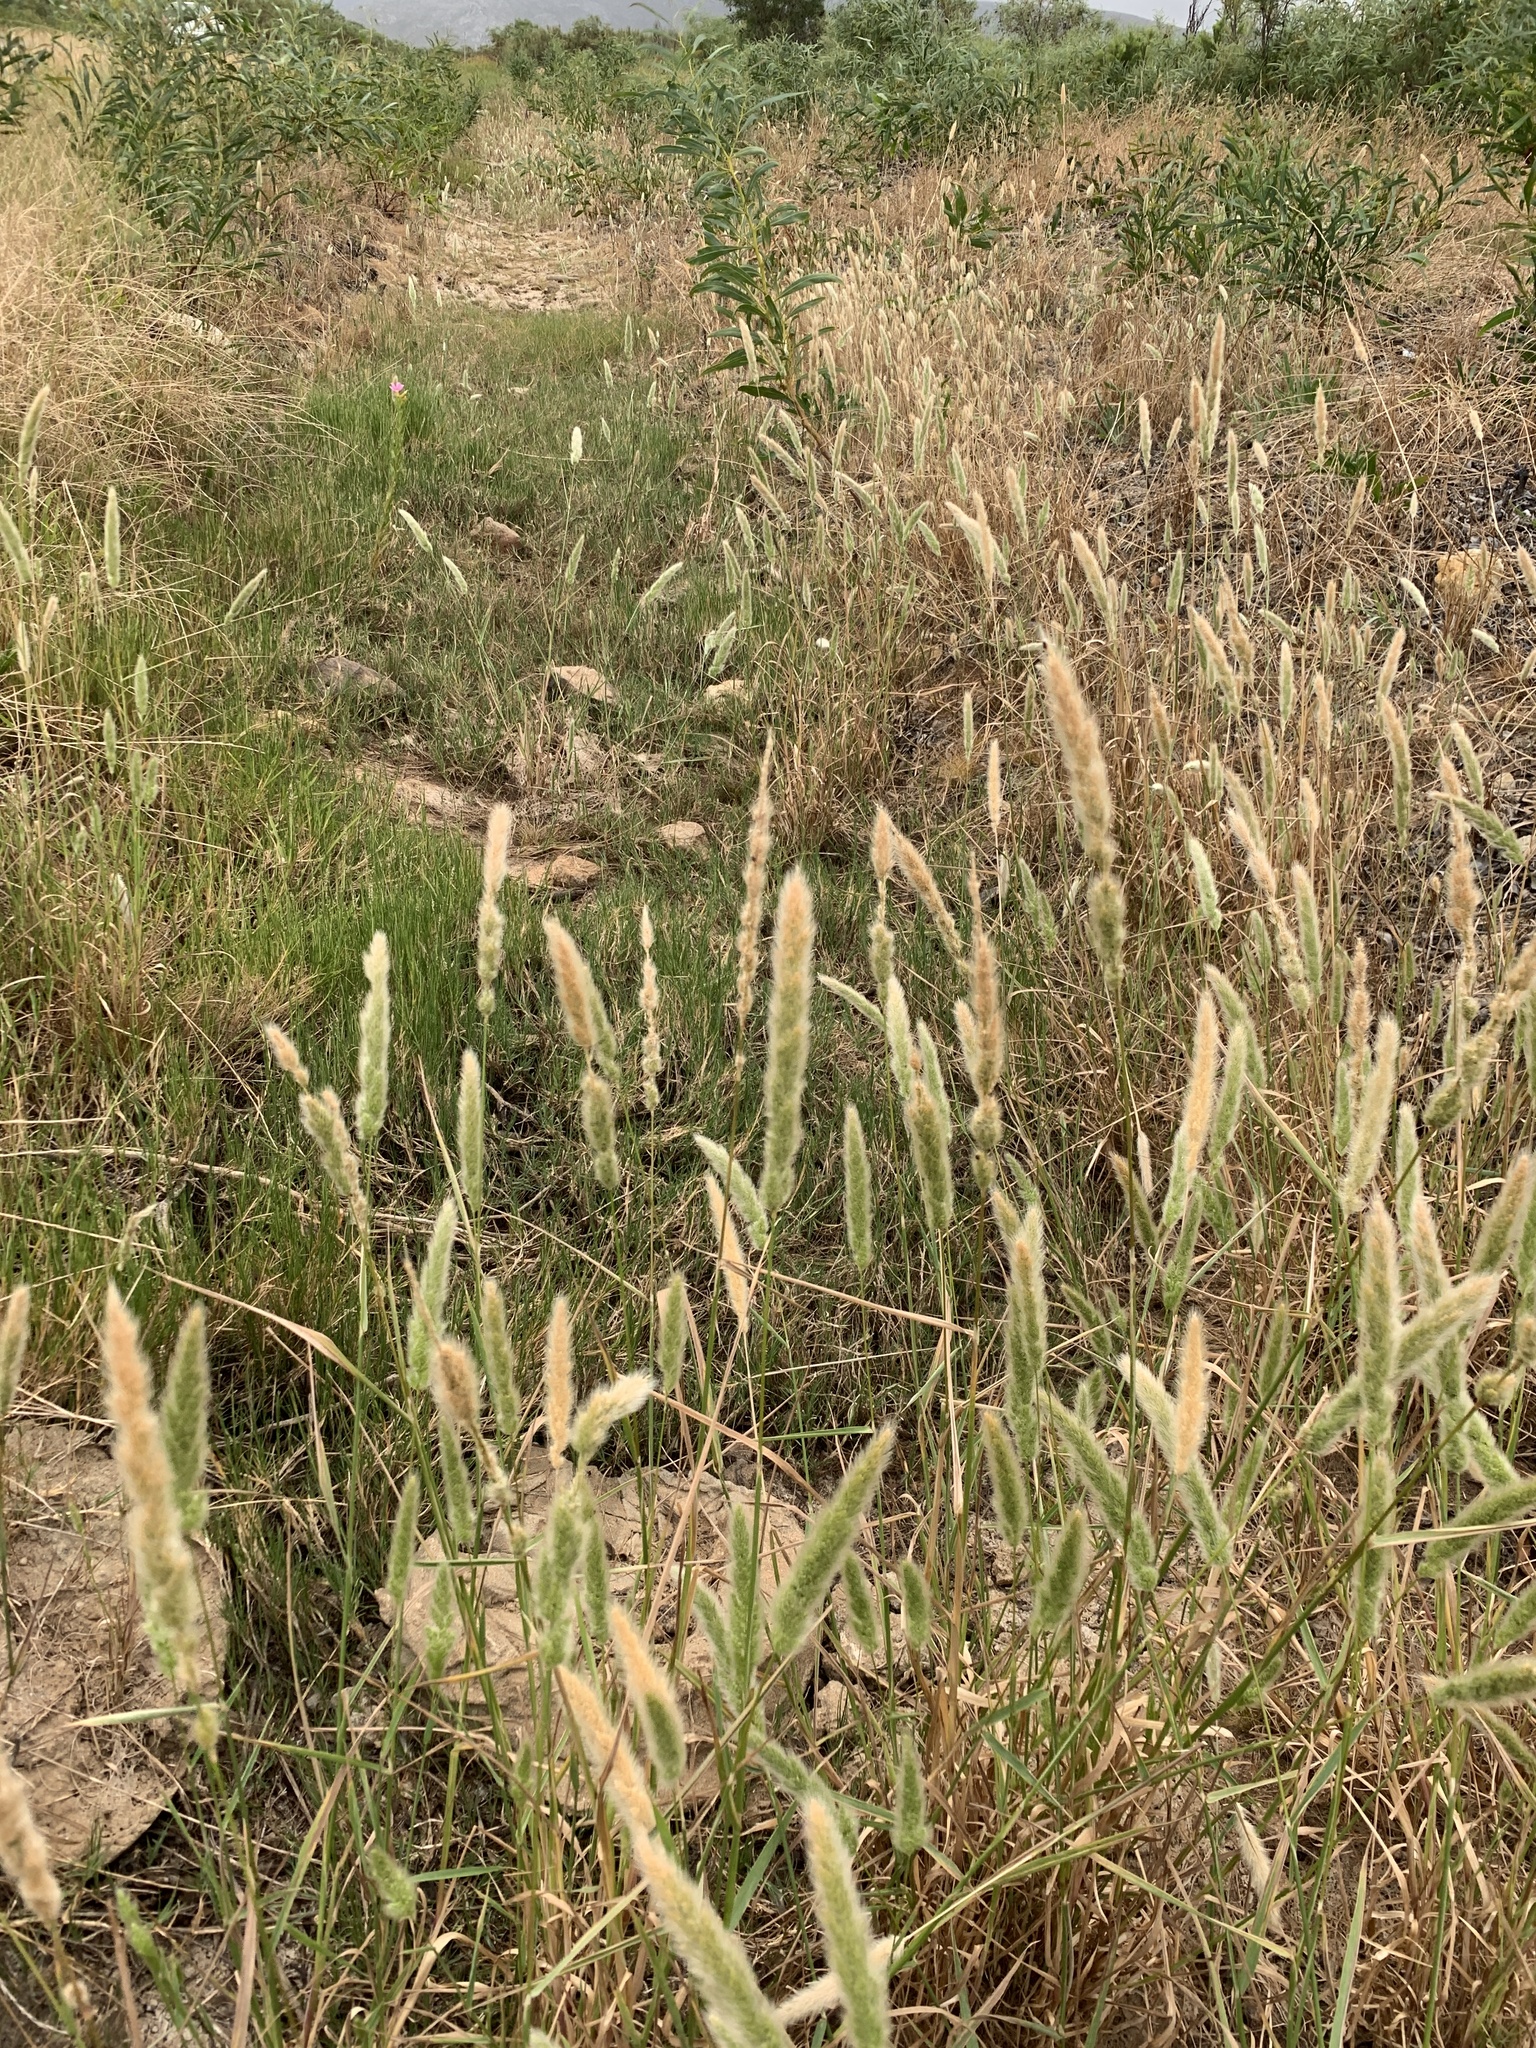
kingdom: Plantae
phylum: Tracheophyta
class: Liliopsida
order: Poales
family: Poaceae
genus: Polypogon
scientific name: Polypogon monspeliensis
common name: Annual rabbitsfoot grass
